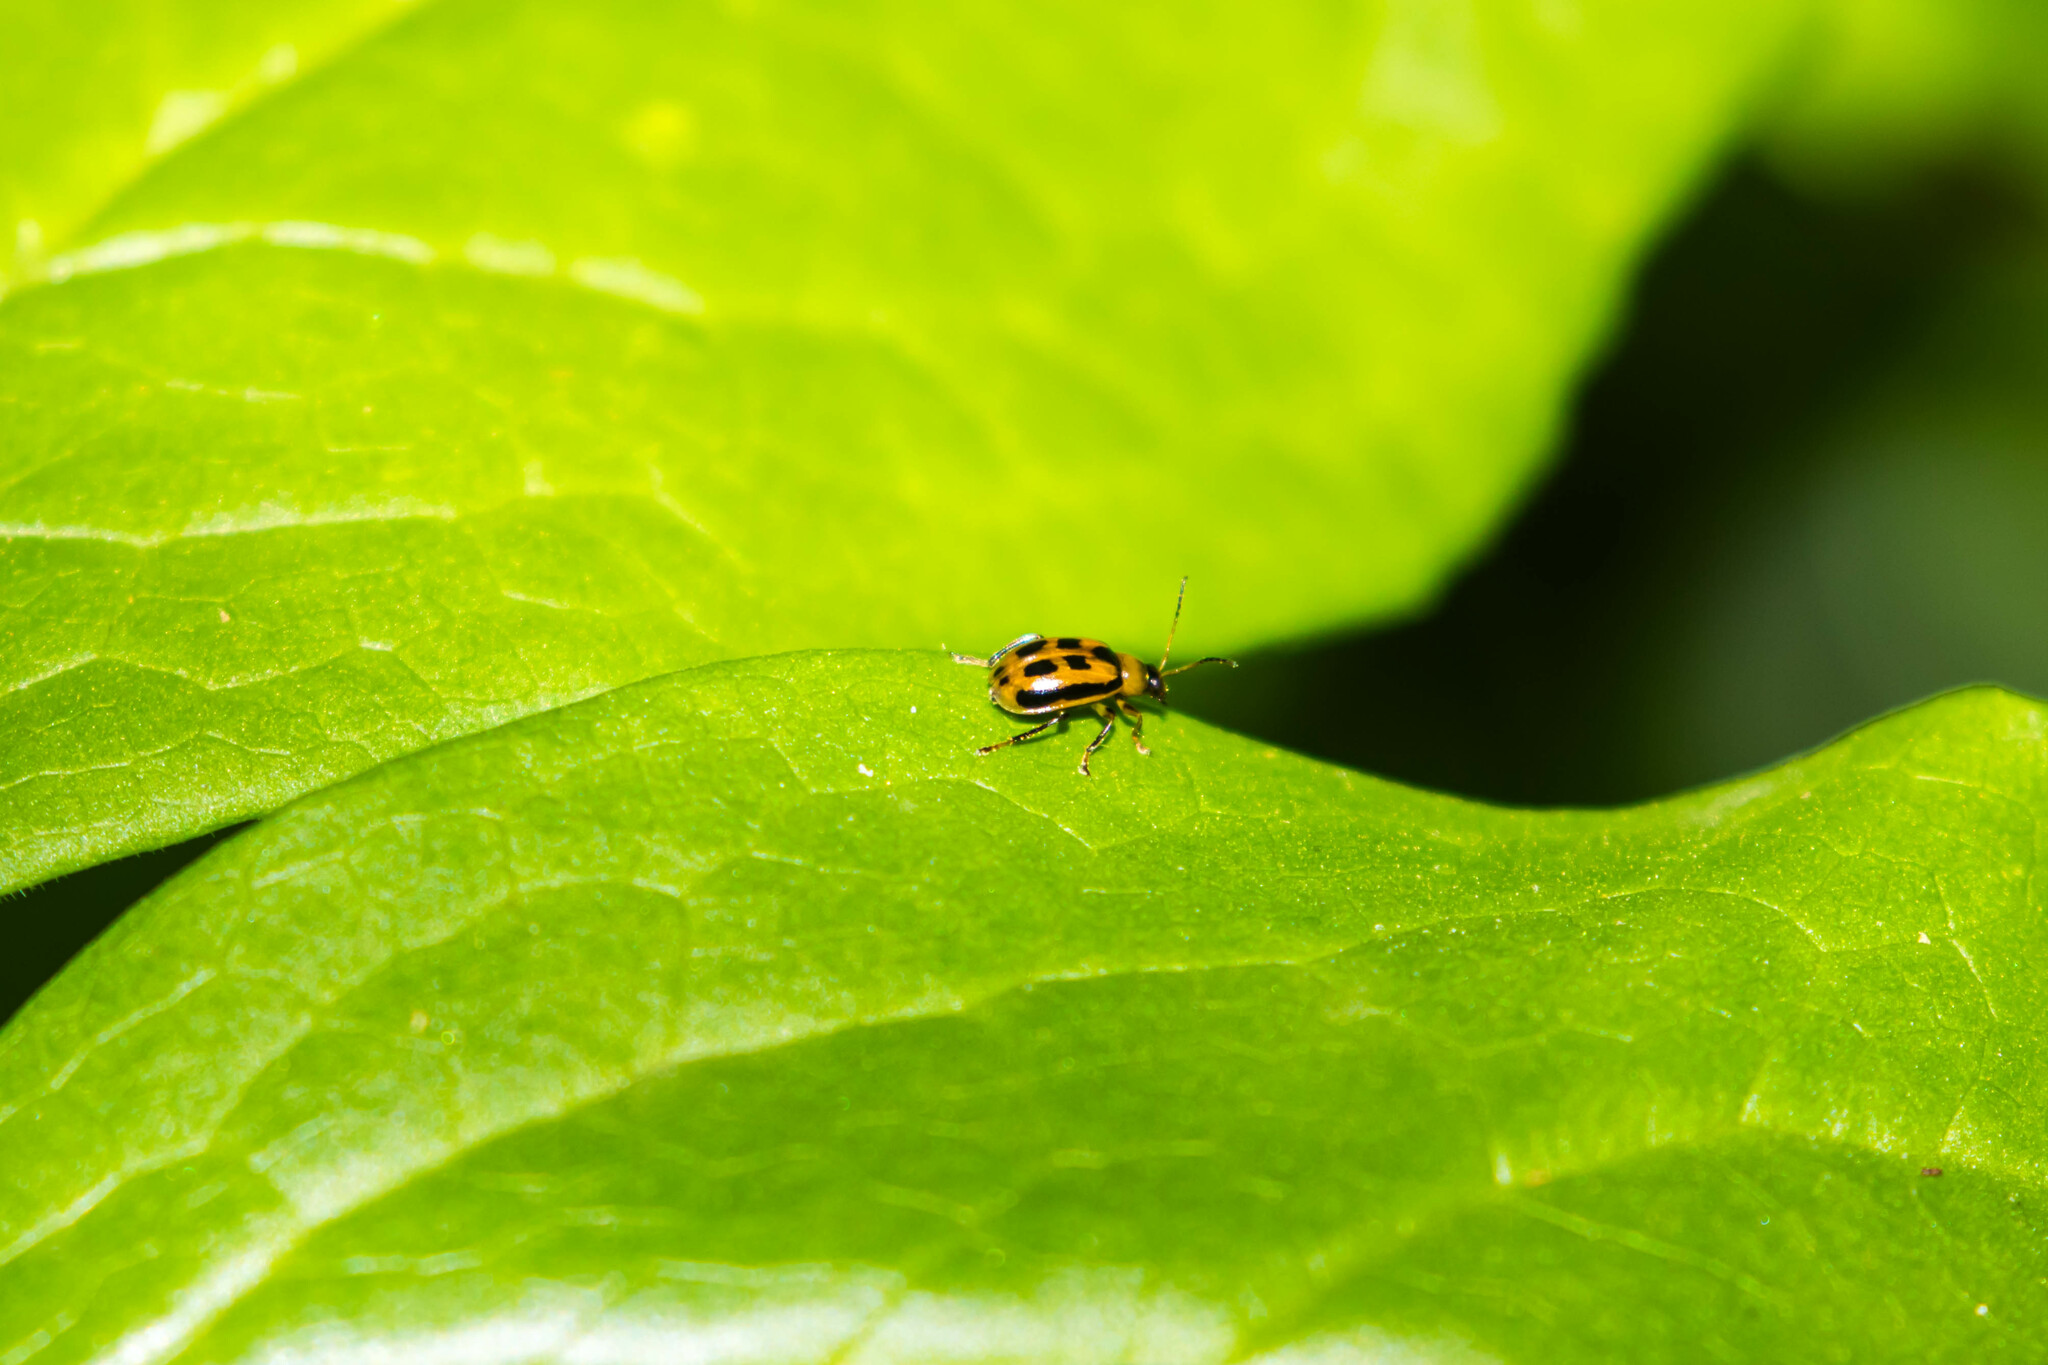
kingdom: Animalia
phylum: Arthropoda
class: Insecta
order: Coleoptera
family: Chrysomelidae
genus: Cerotoma
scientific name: Cerotoma trifurcata
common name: Bean leaf beetle
